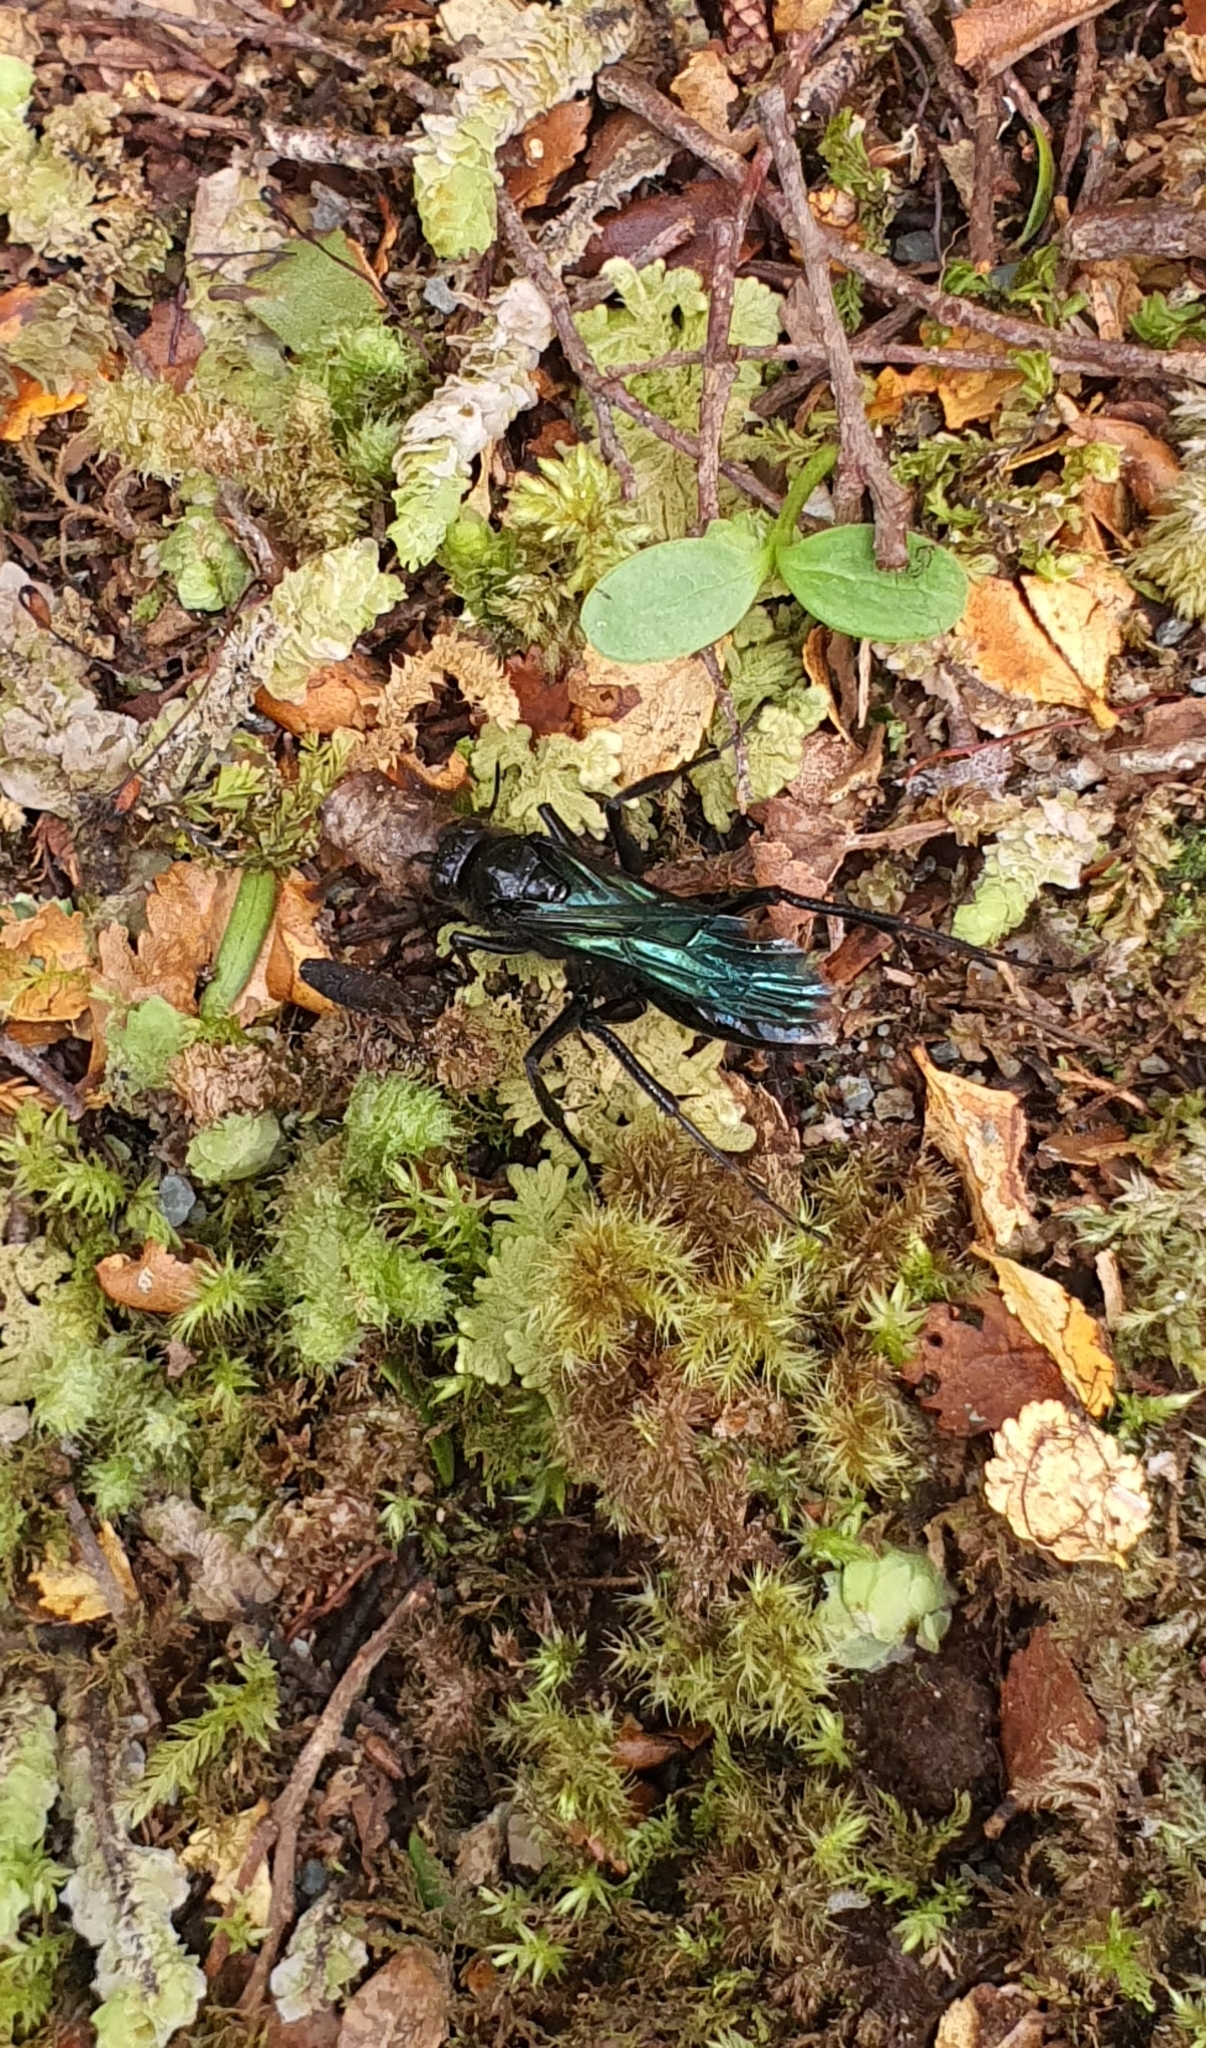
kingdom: Animalia
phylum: Arthropoda
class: Insecta
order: Hymenoptera
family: Pompilidae
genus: Priocnemis
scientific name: Priocnemis monachus
